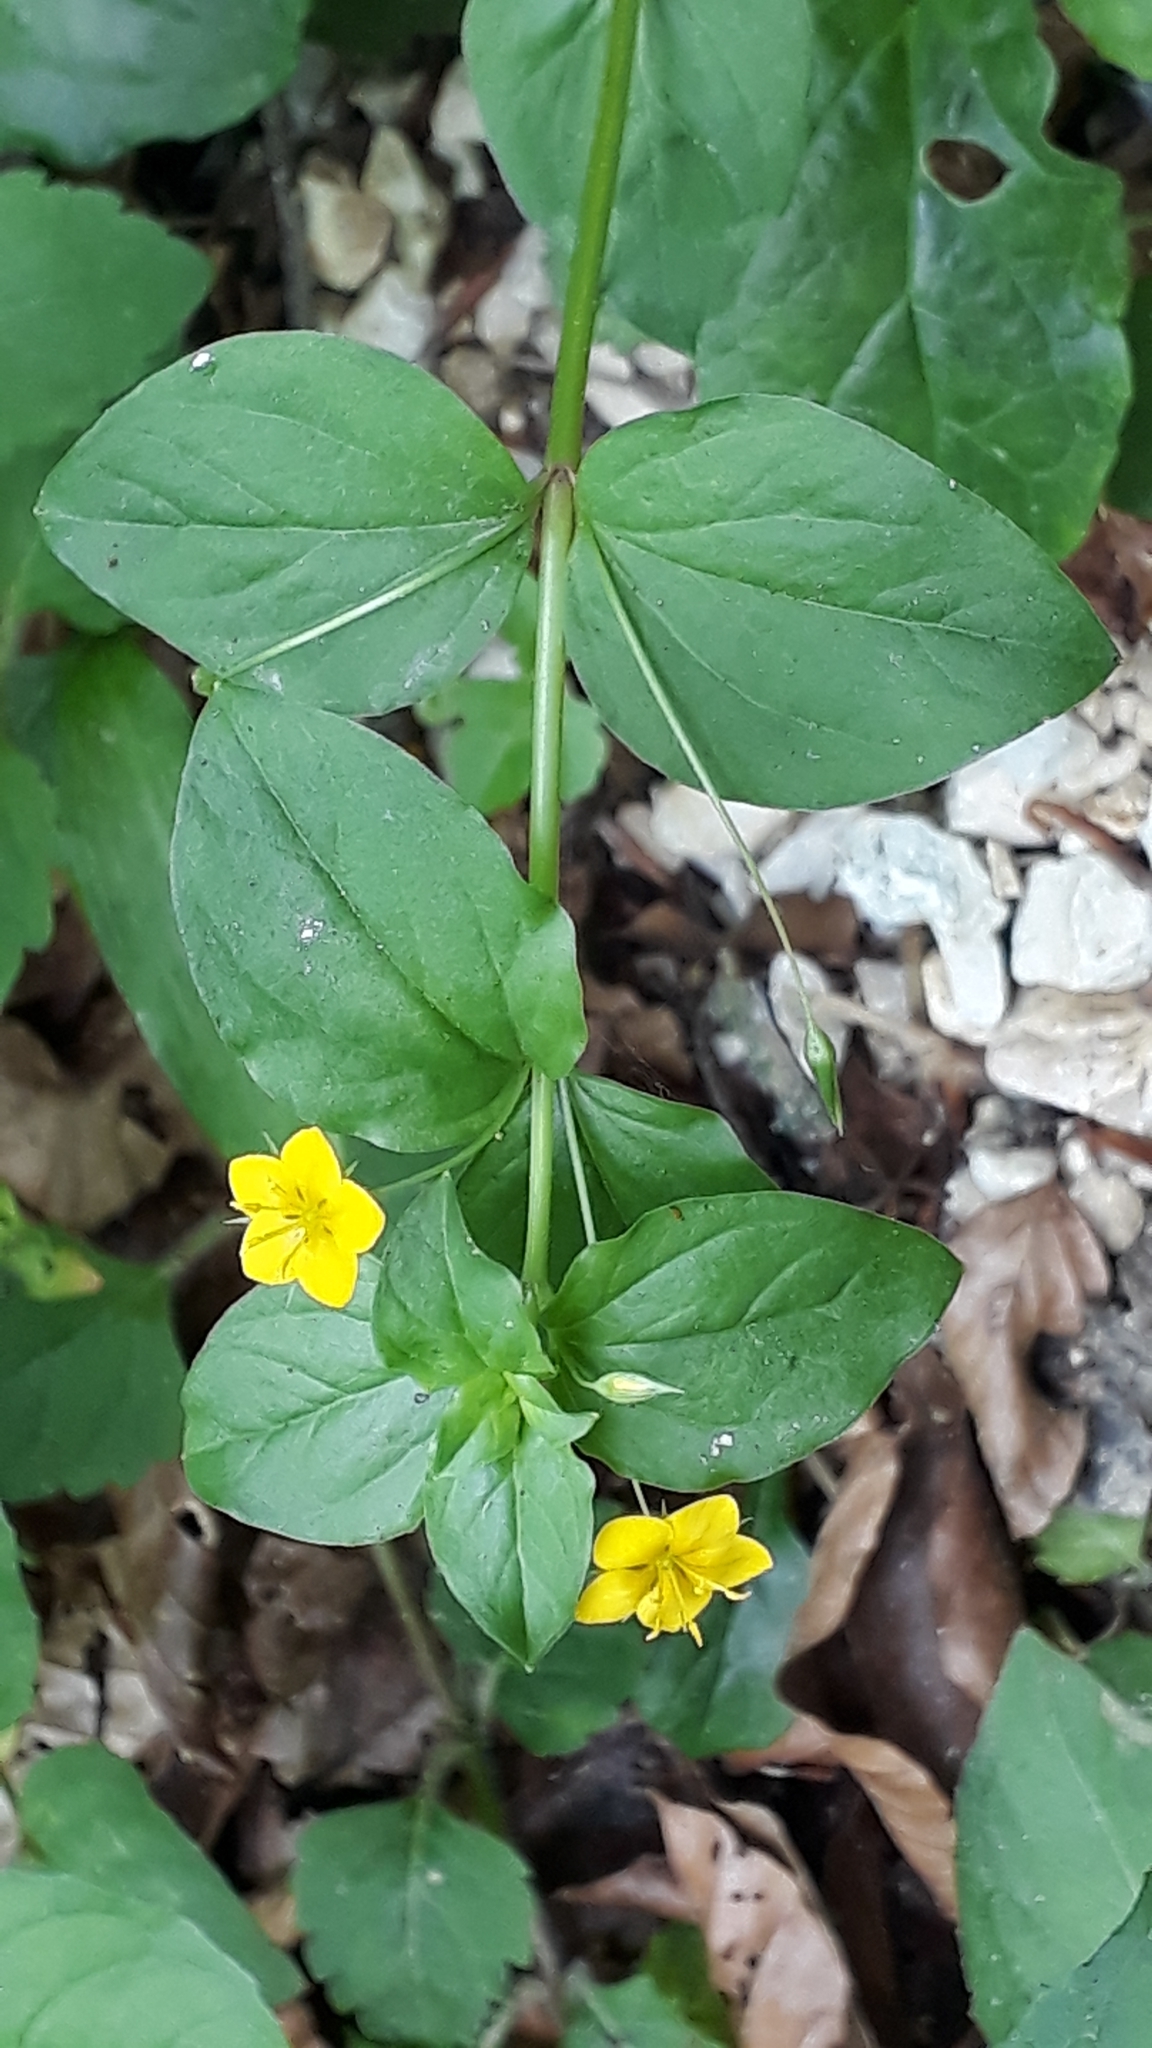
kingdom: Plantae
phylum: Tracheophyta
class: Magnoliopsida
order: Ericales
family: Primulaceae
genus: Lysimachia
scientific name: Lysimachia nemorum
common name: Yellow pimpernel
